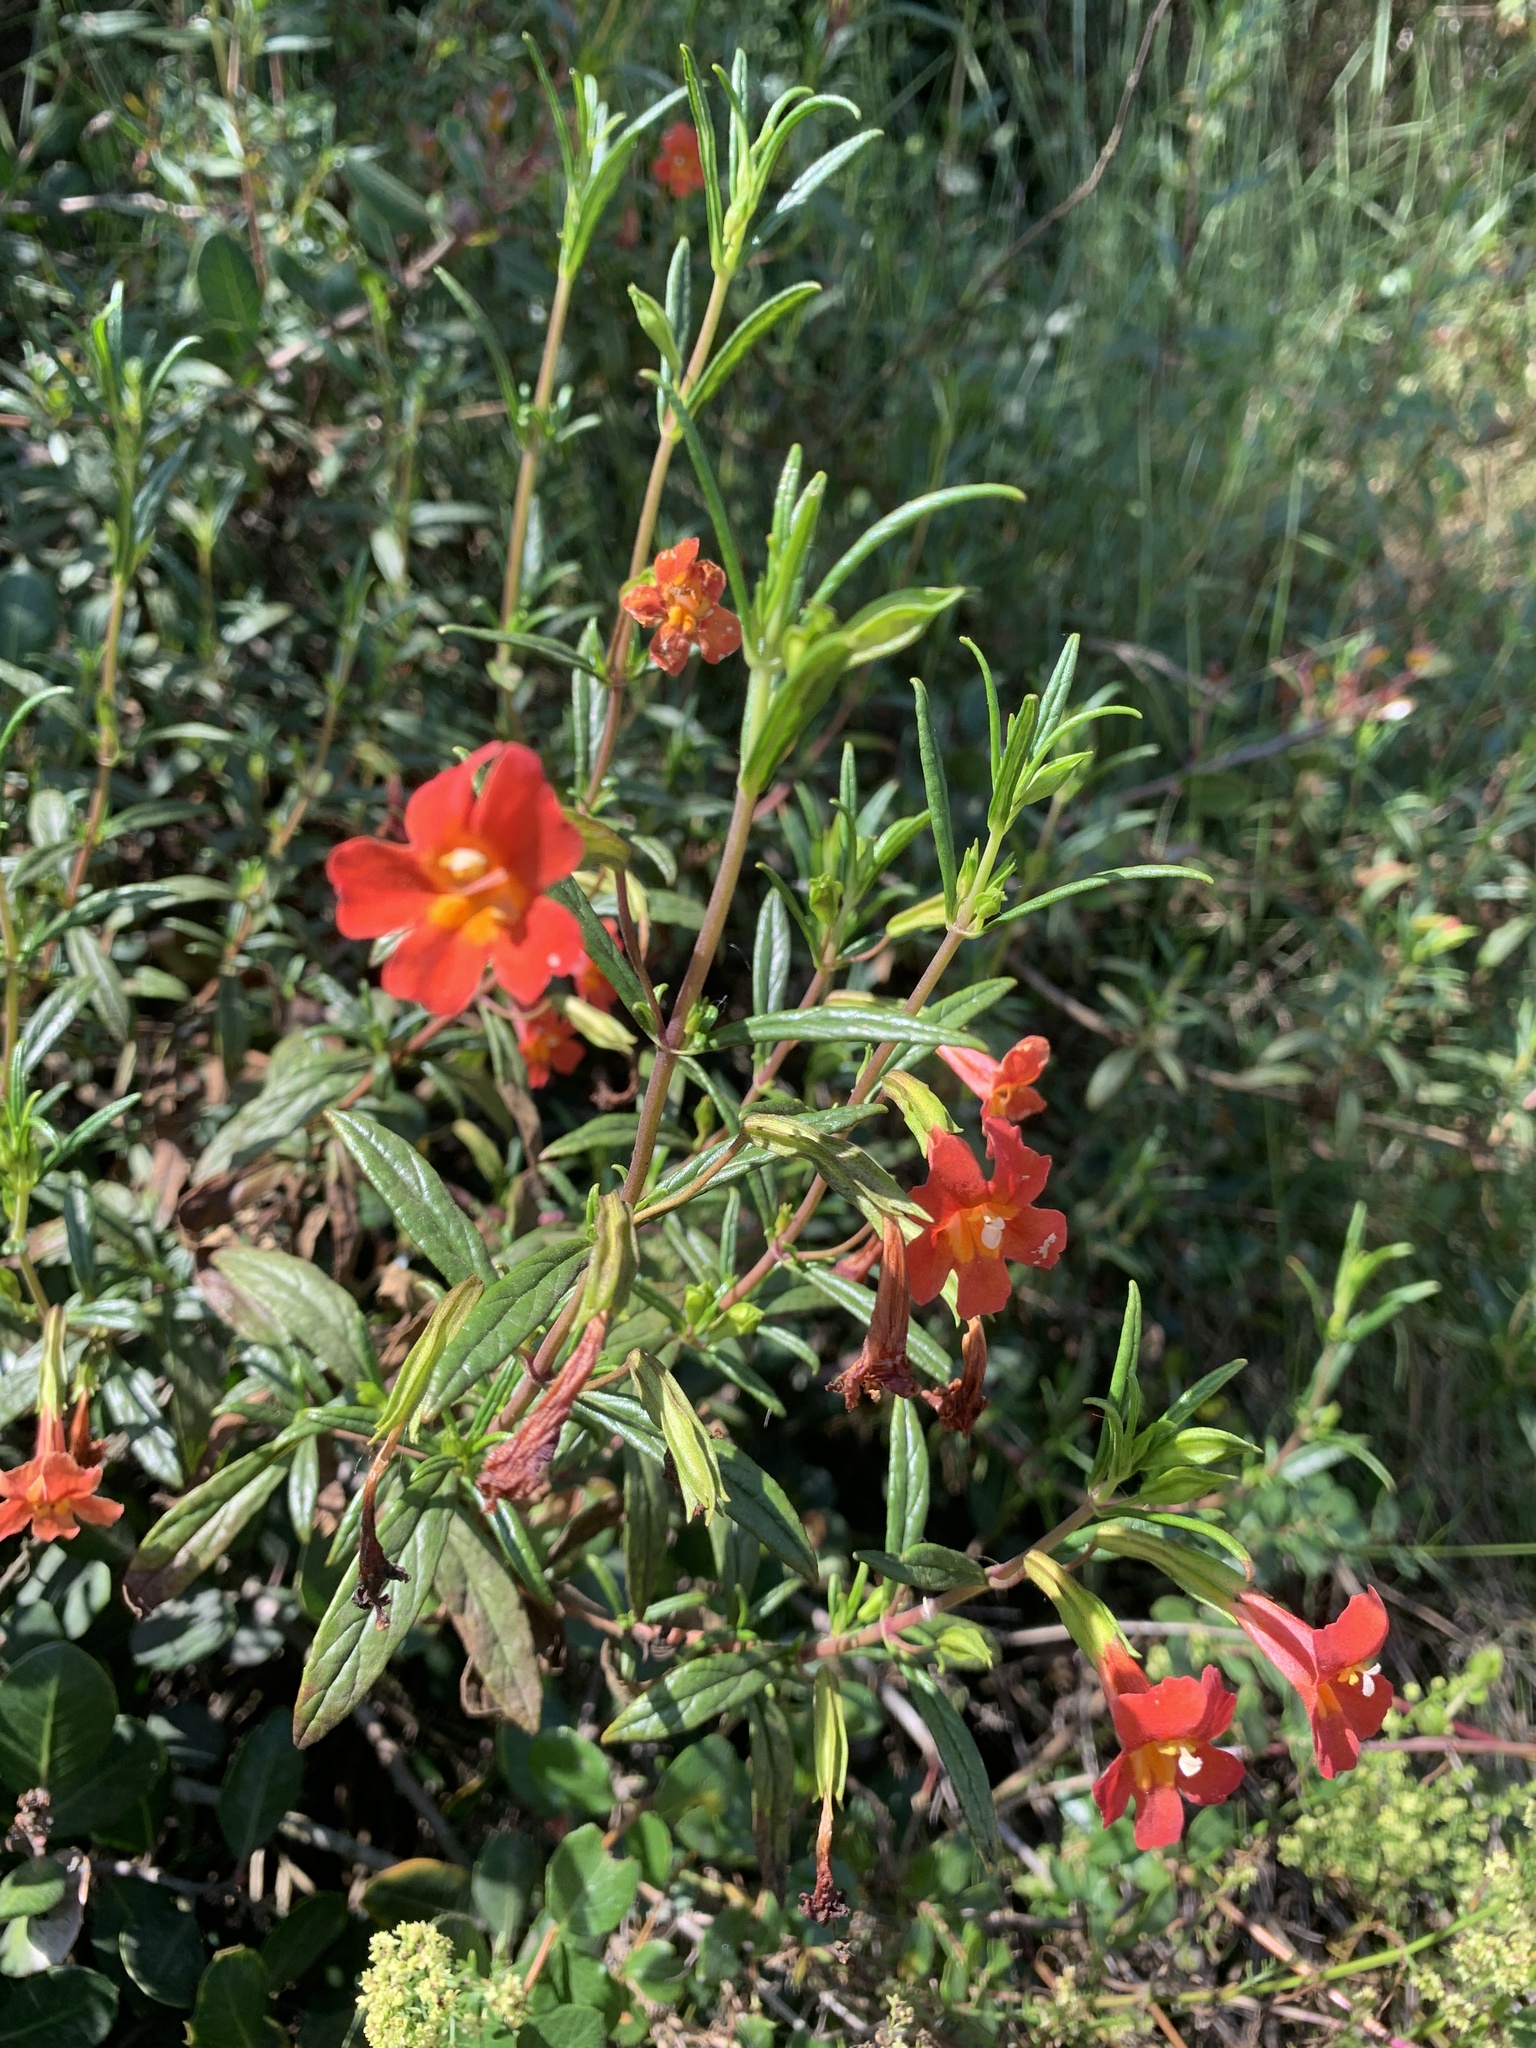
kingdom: Plantae
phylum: Tracheophyta
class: Magnoliopsida
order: Lamiales
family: Phrymaceae
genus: Diplacus
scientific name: Diplacus puniceus
